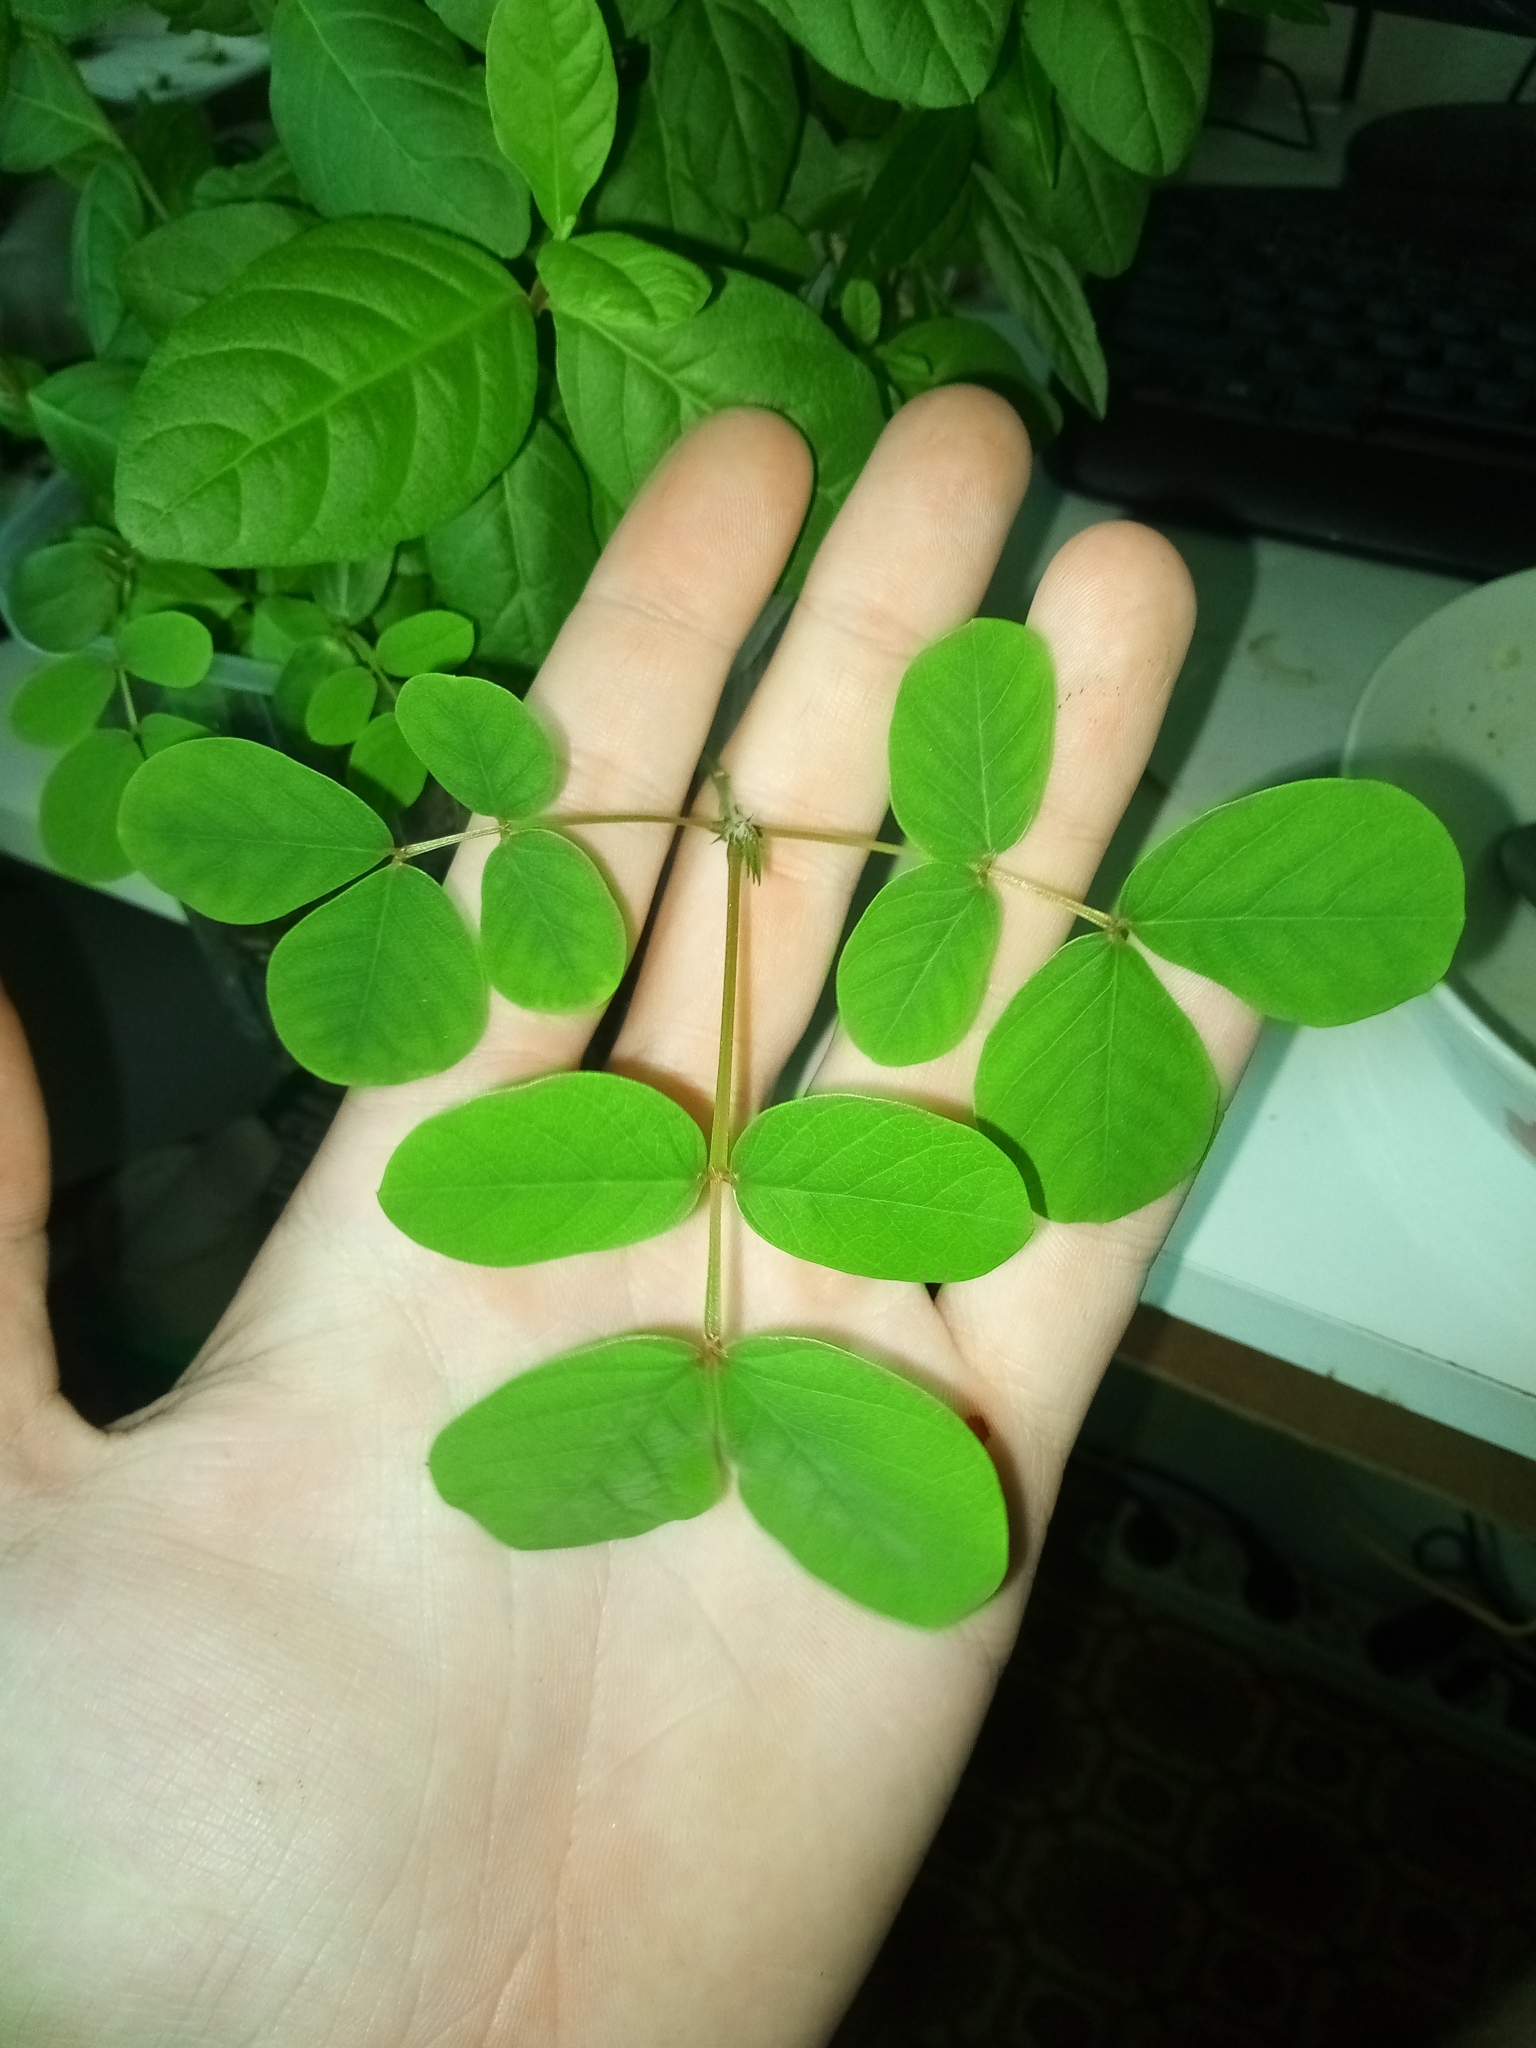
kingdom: Plantae
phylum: Tracheophyta
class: Magnoliopsida
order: Fabales
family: Fabaceae
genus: Clitoria
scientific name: Clitoria ternatea
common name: Asian pigeonwings
